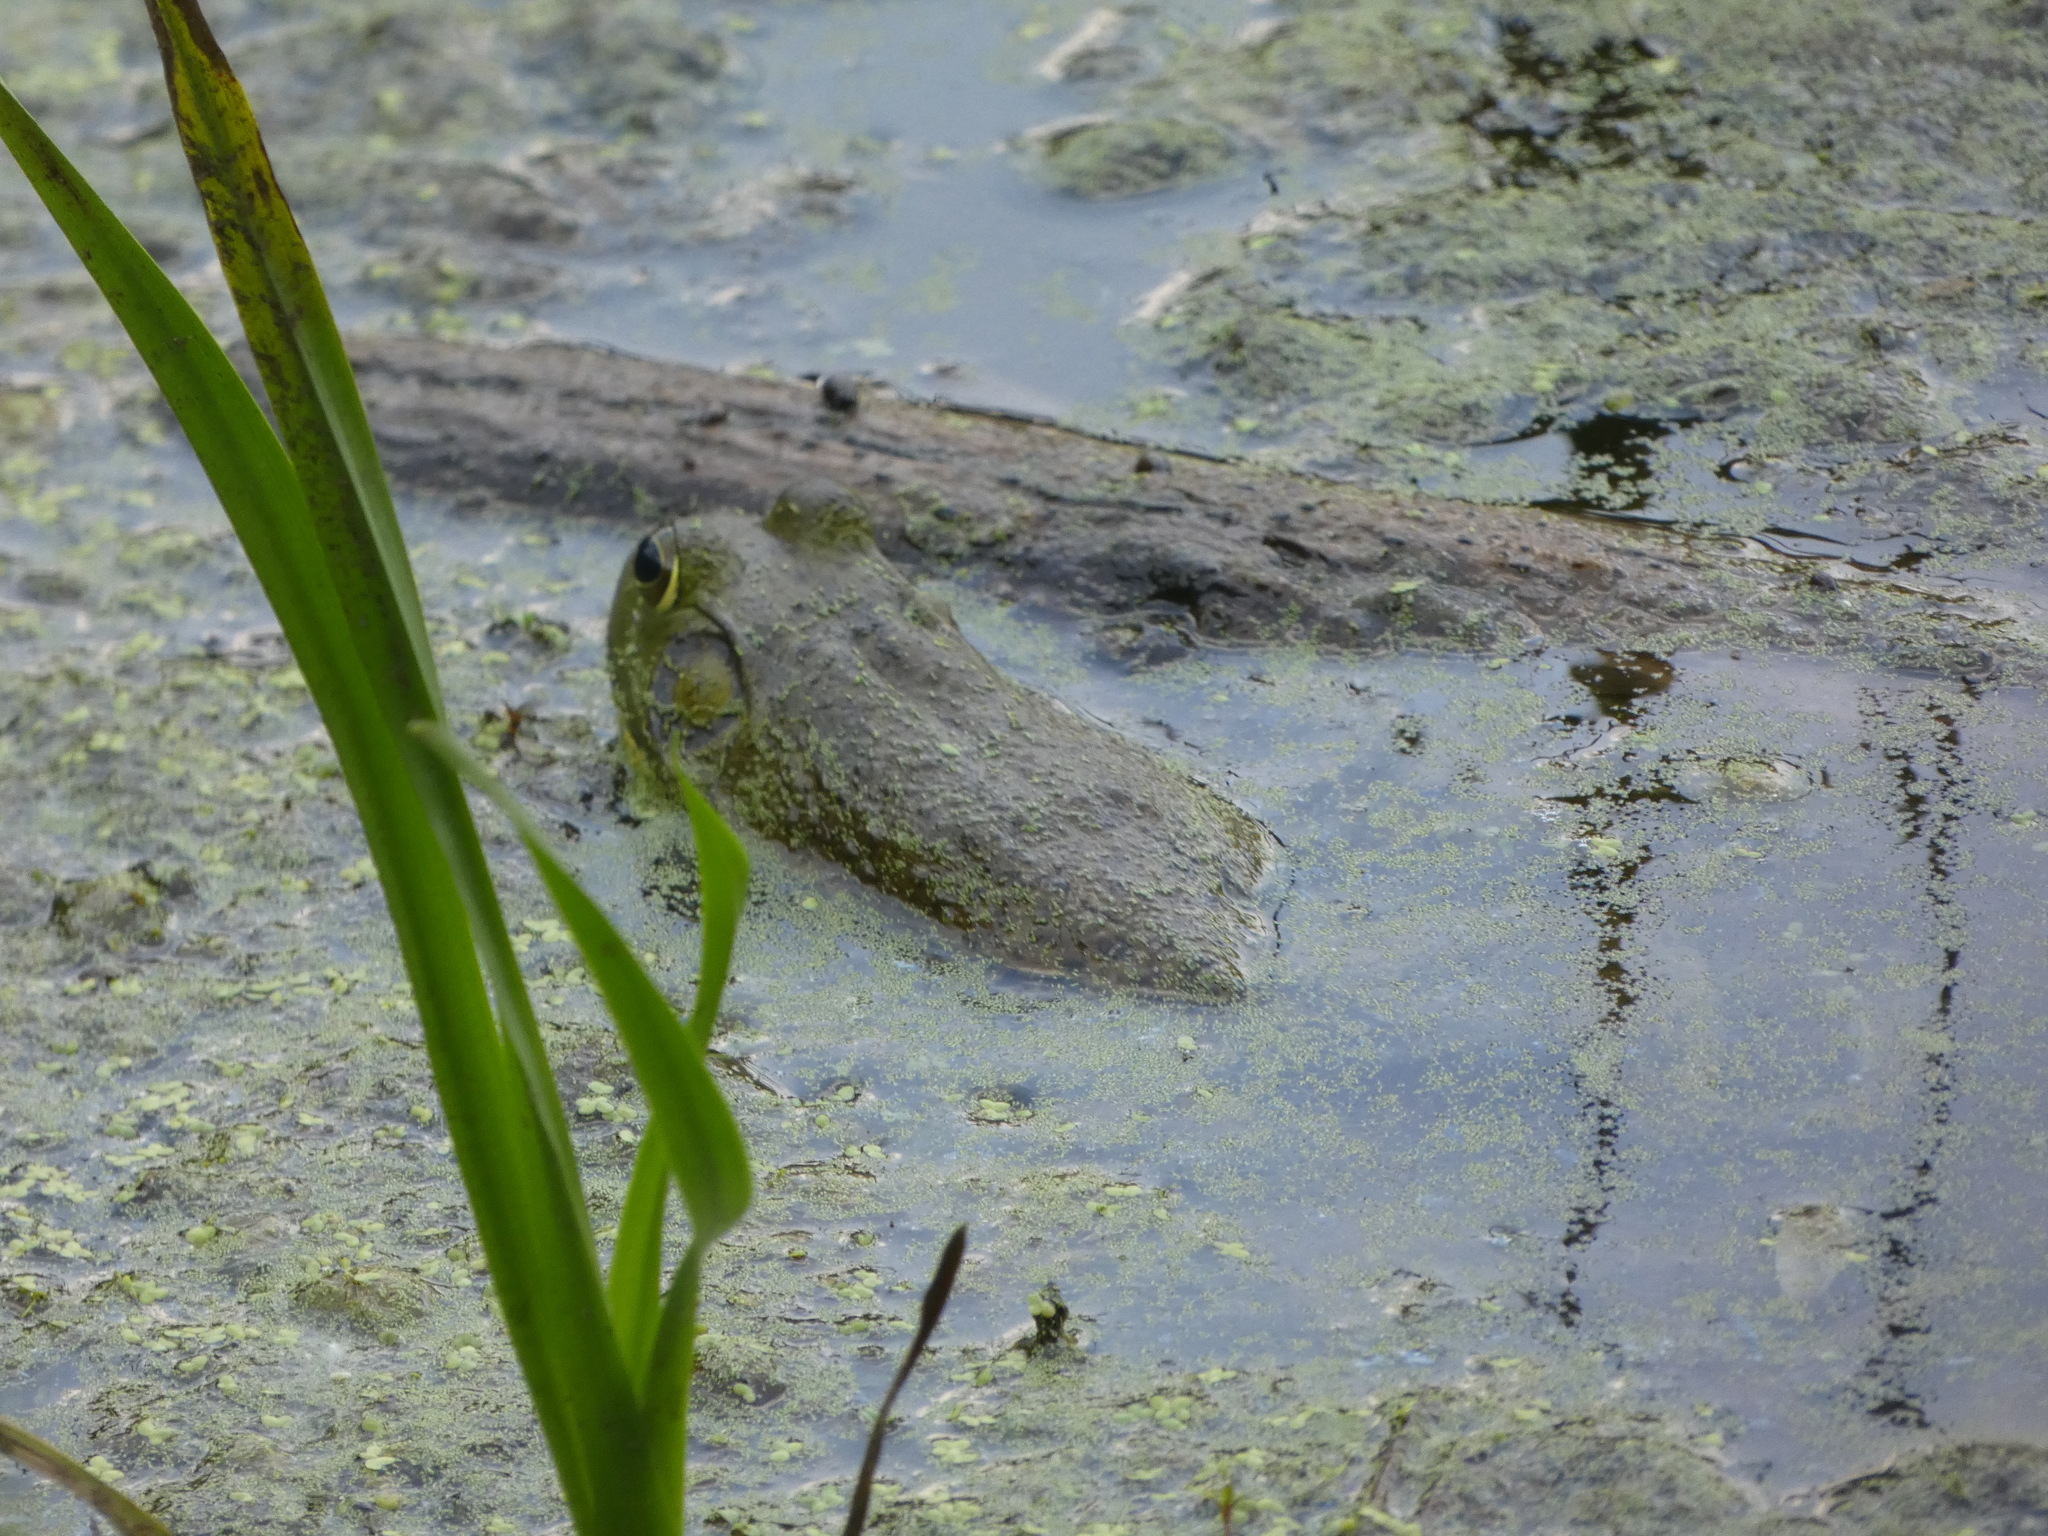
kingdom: Animalia
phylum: Chordata
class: Amphibia
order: Anura
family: Ranidae
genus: Lithobates
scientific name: Lithobates catesbeianus
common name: American bullfrog
